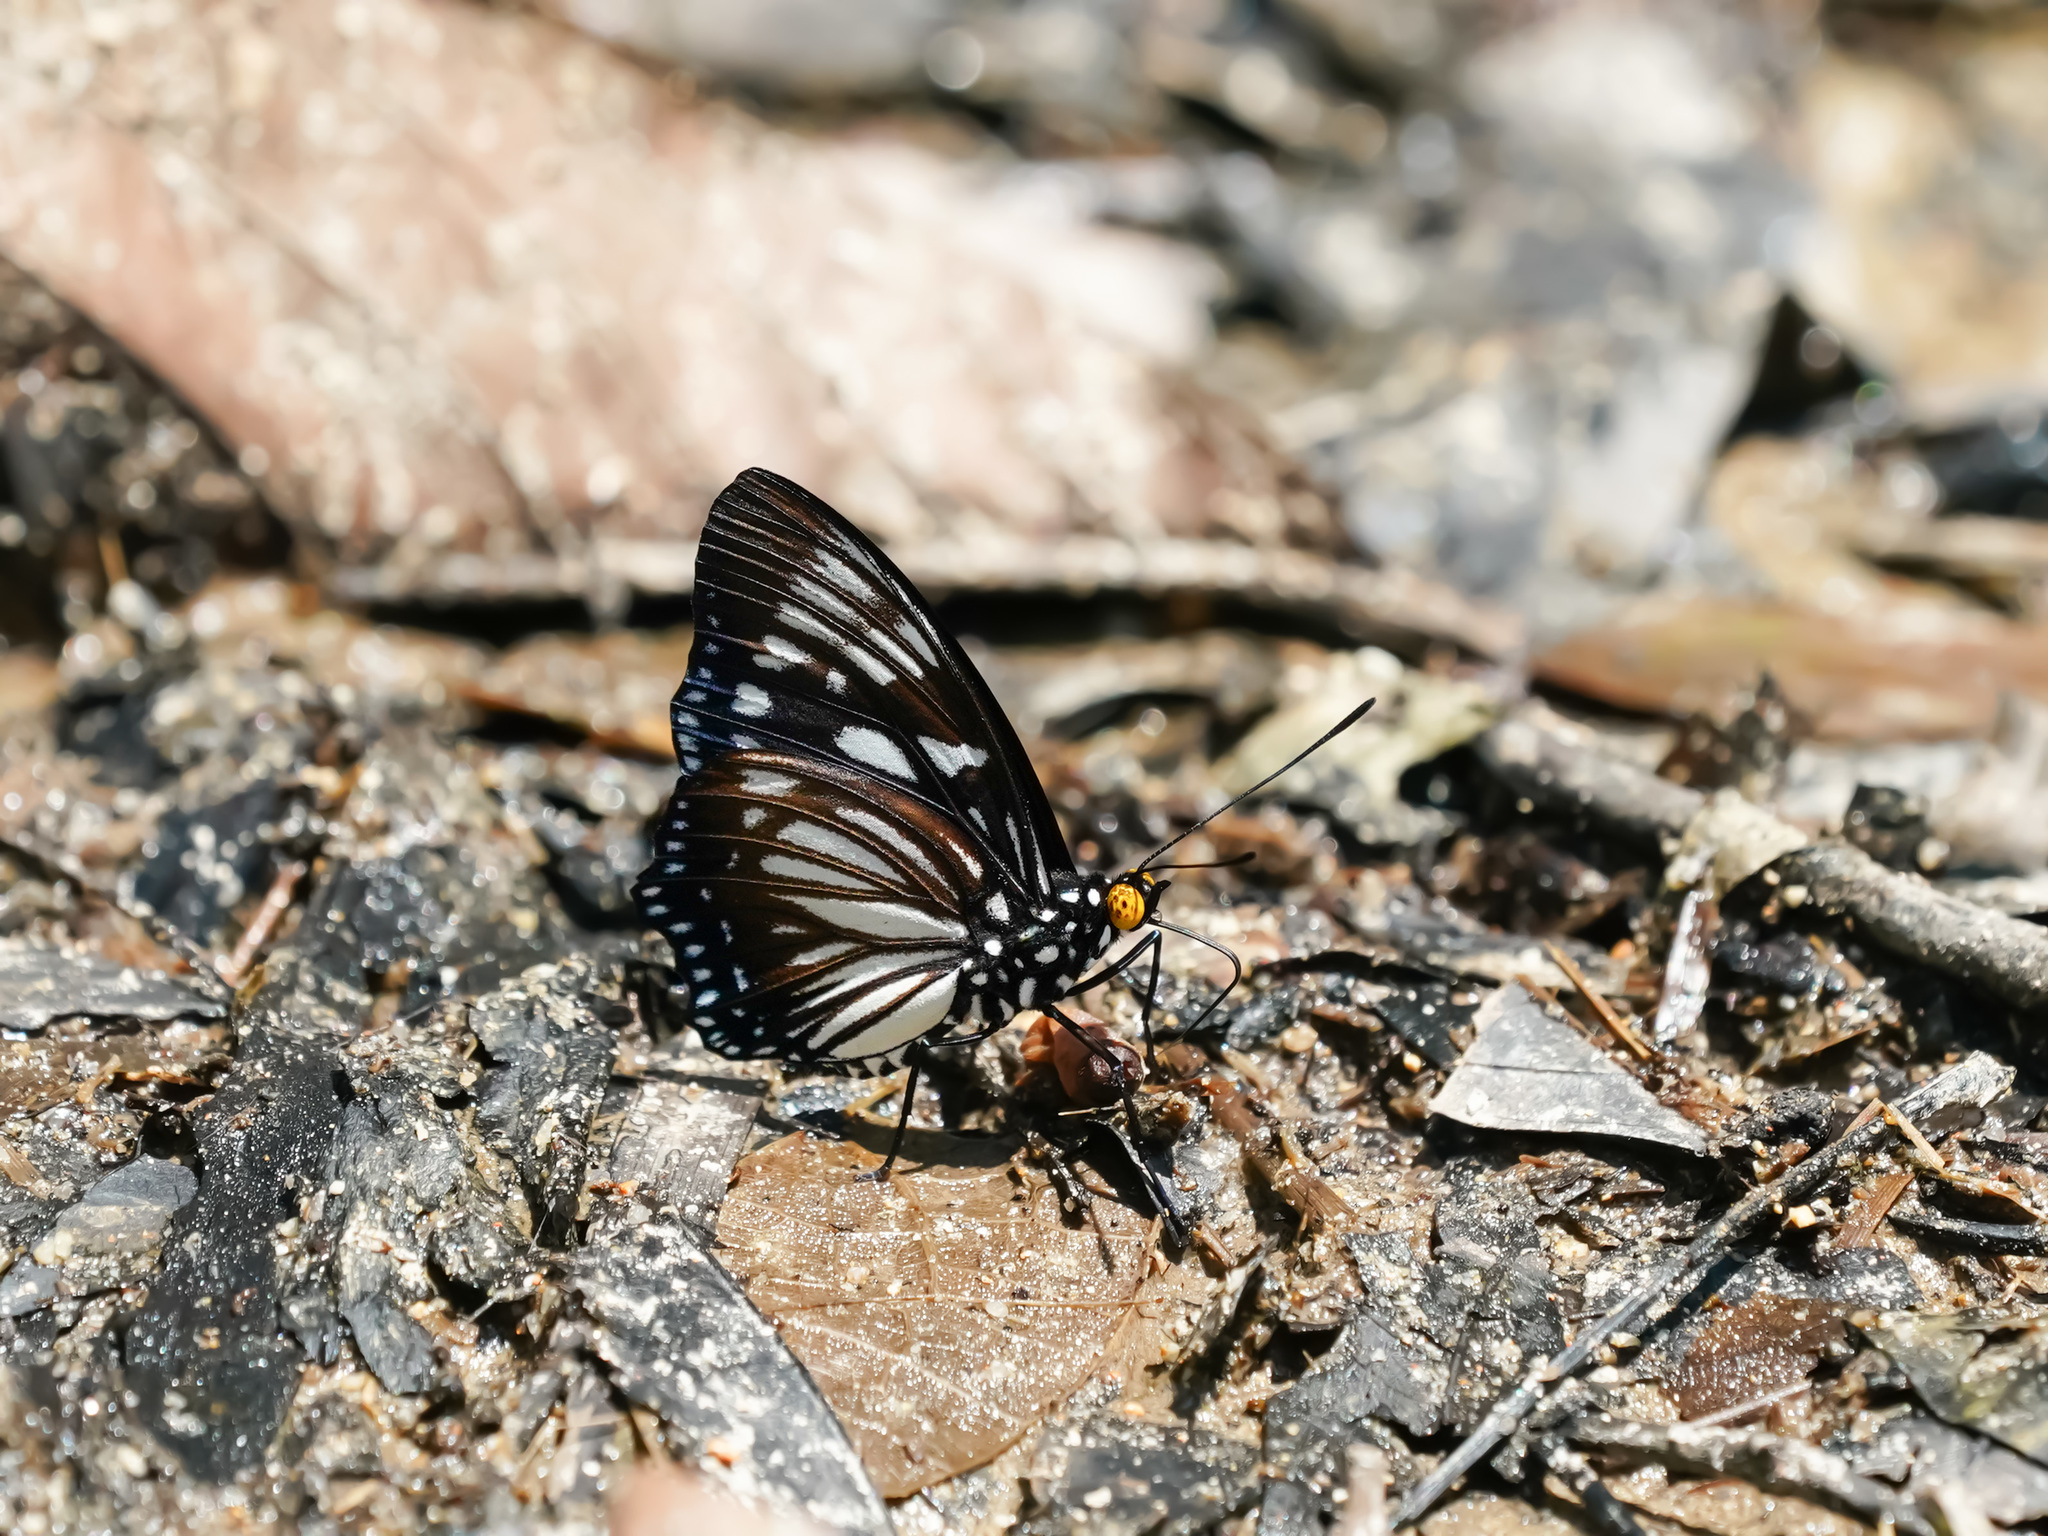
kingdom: Animalia
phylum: Arthropoda
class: Insecta
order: Lepidoptera
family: Nymphalidae
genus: Euripus
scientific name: Euripus nyctelius
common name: Courtesan
